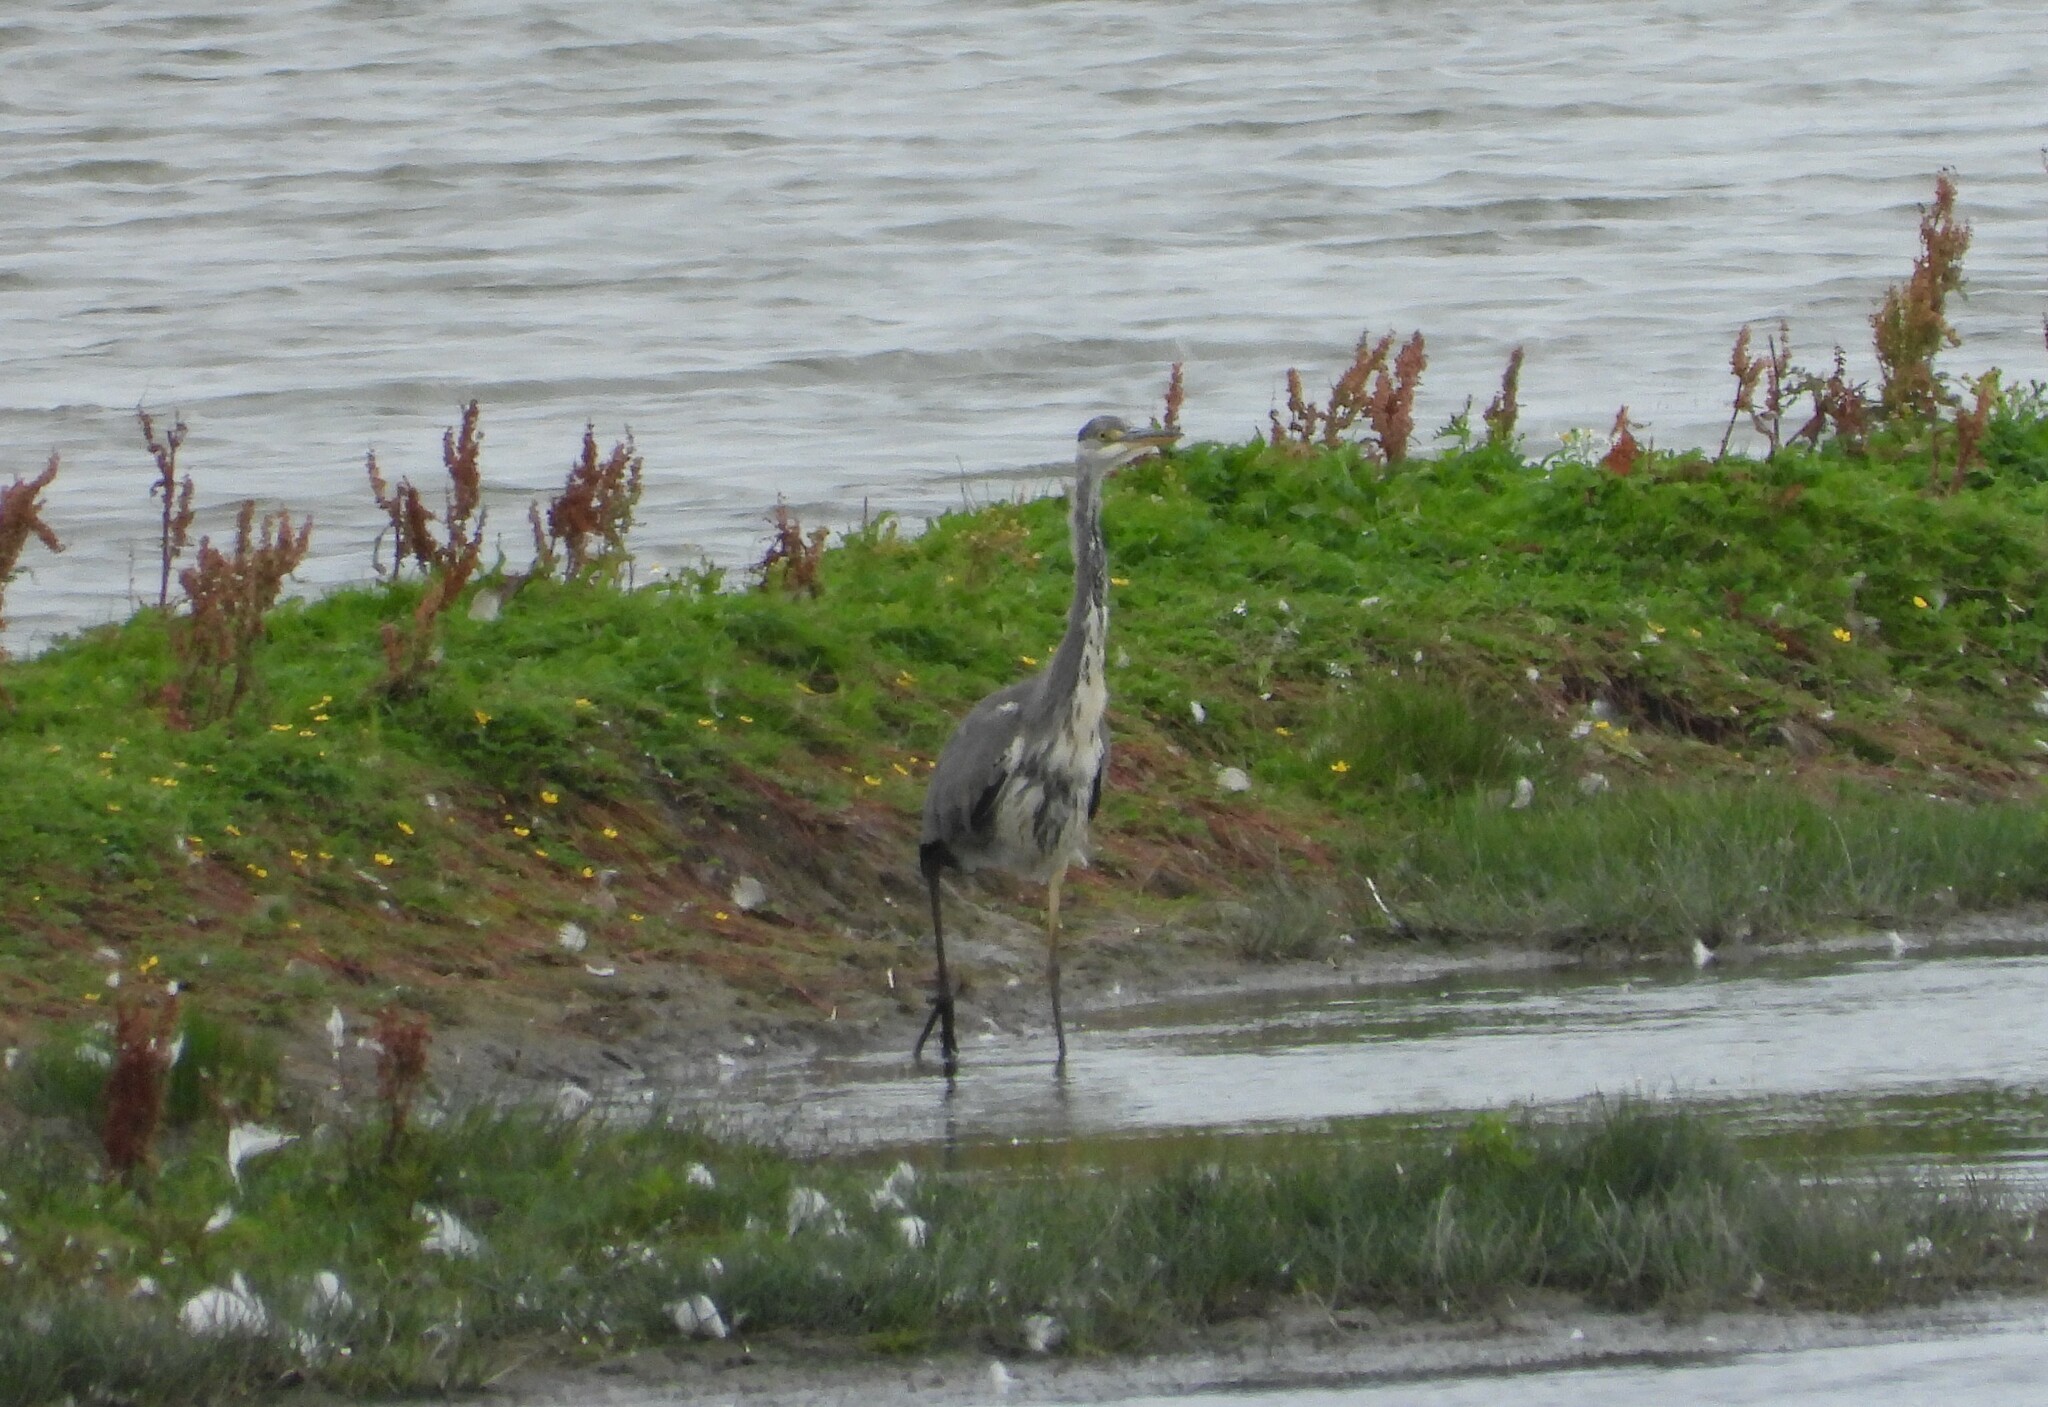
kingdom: Animalia
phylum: Chordata
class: Aves
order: Pelecaniformes
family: Ardeidae
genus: Ardea
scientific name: Ardea cinerea
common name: Grey heron
